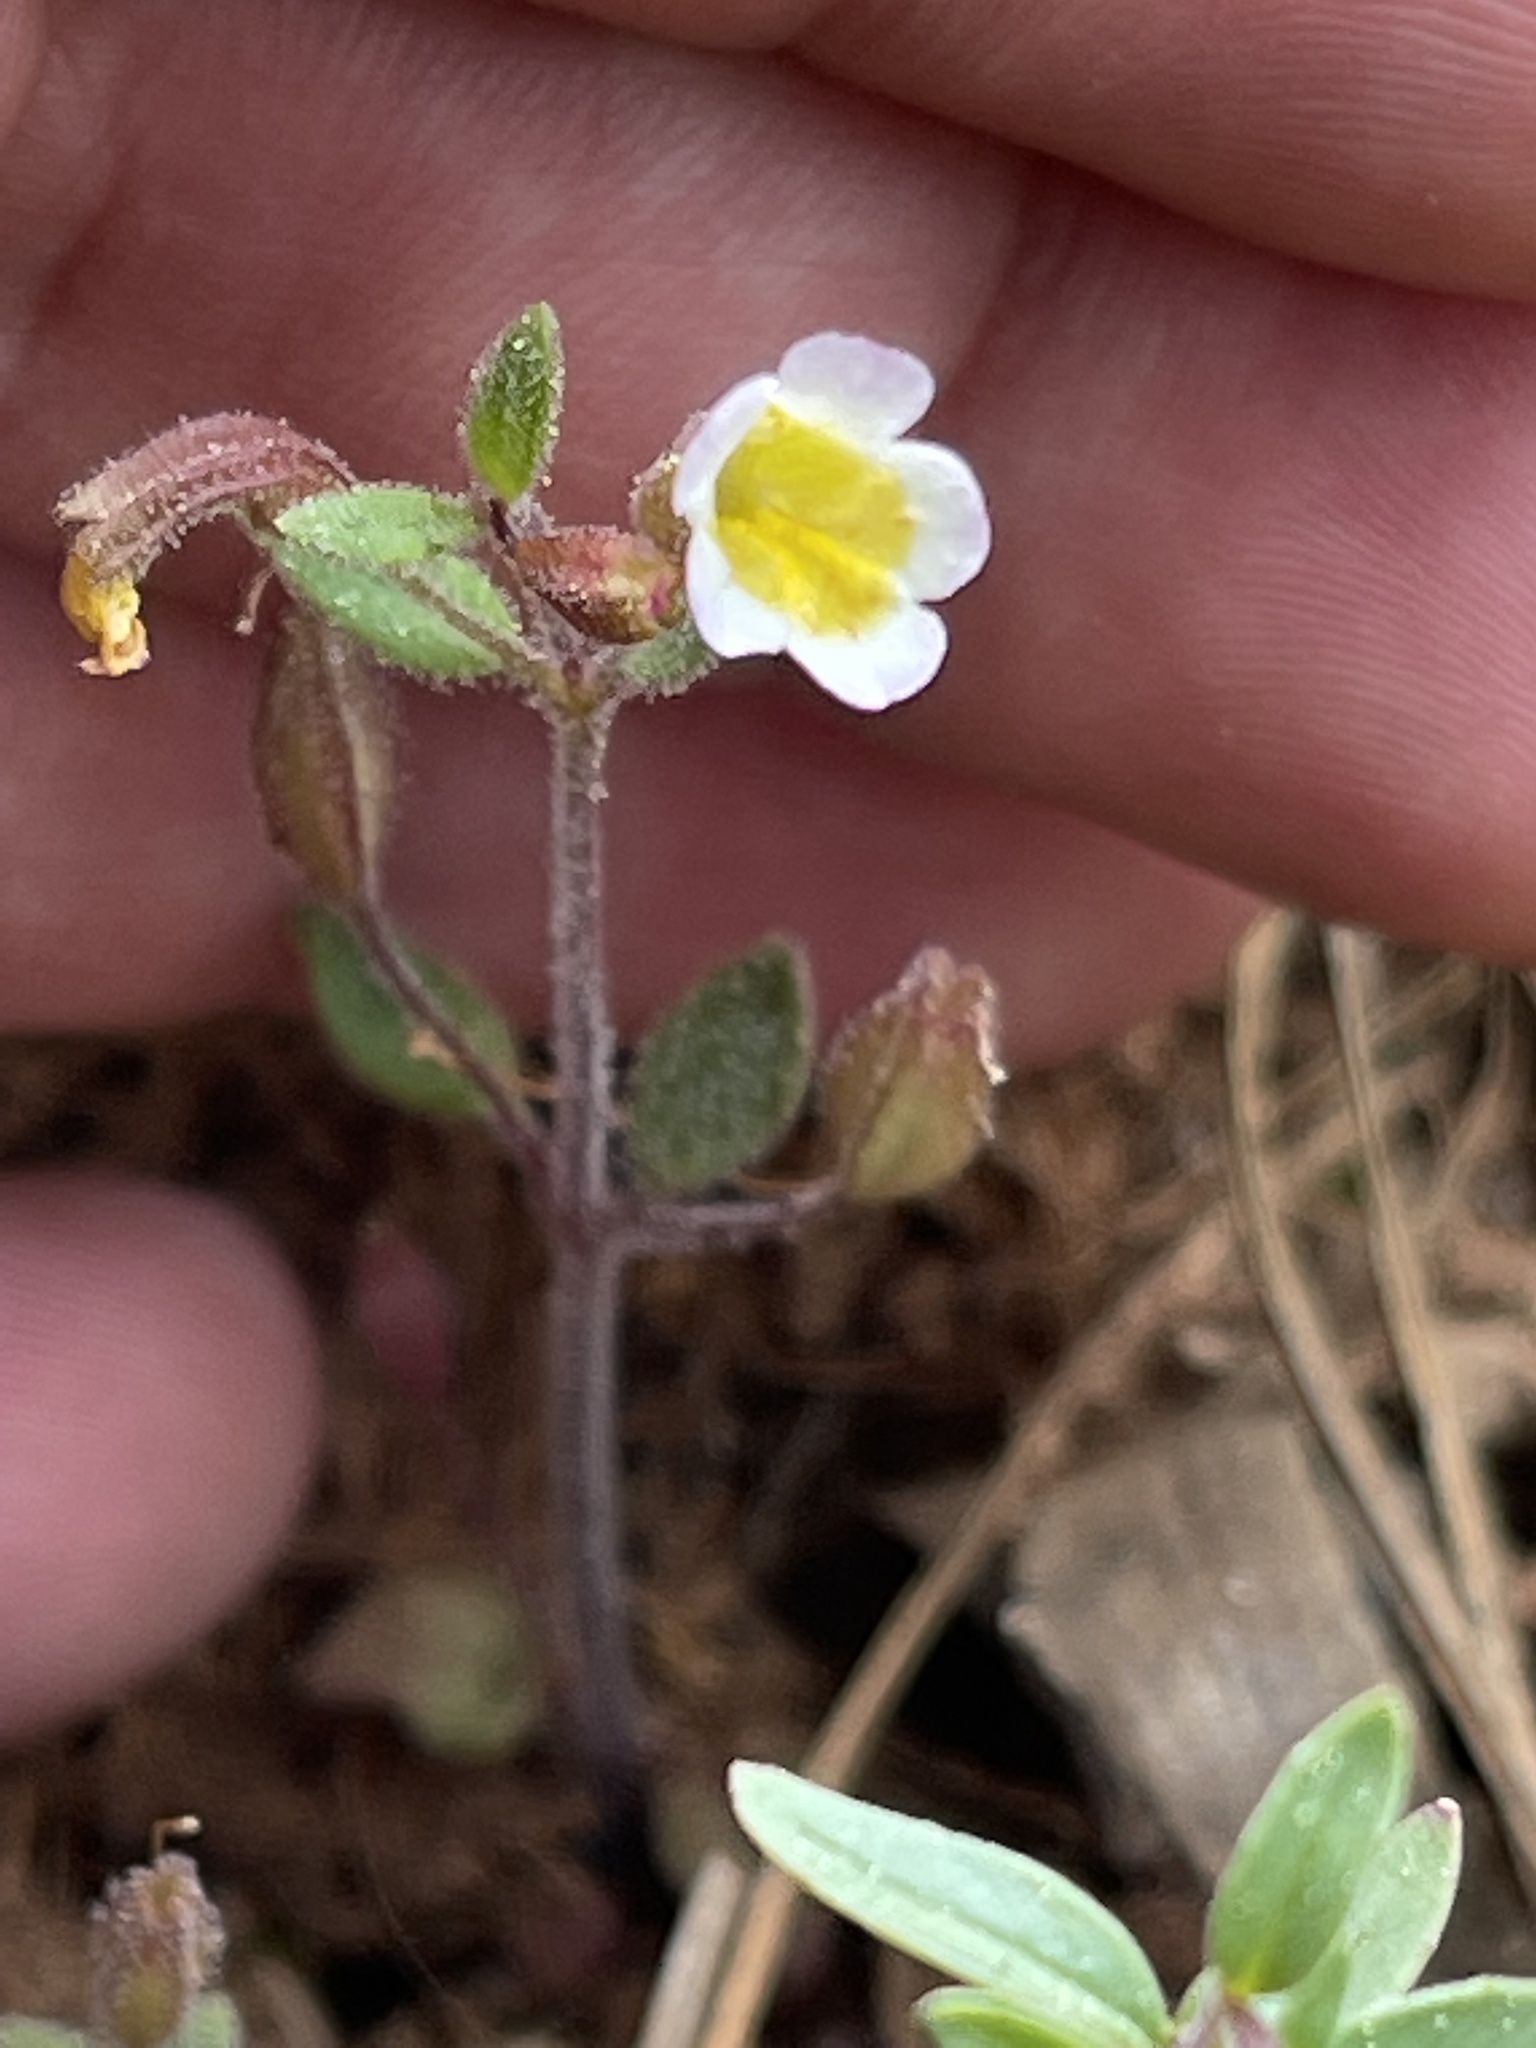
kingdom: Plantae
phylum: Tracheophyta
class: Magnoliopsida
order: Lamiales
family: Phrymaceae
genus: Erythranthe
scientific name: Erythranthe trinitiensis
